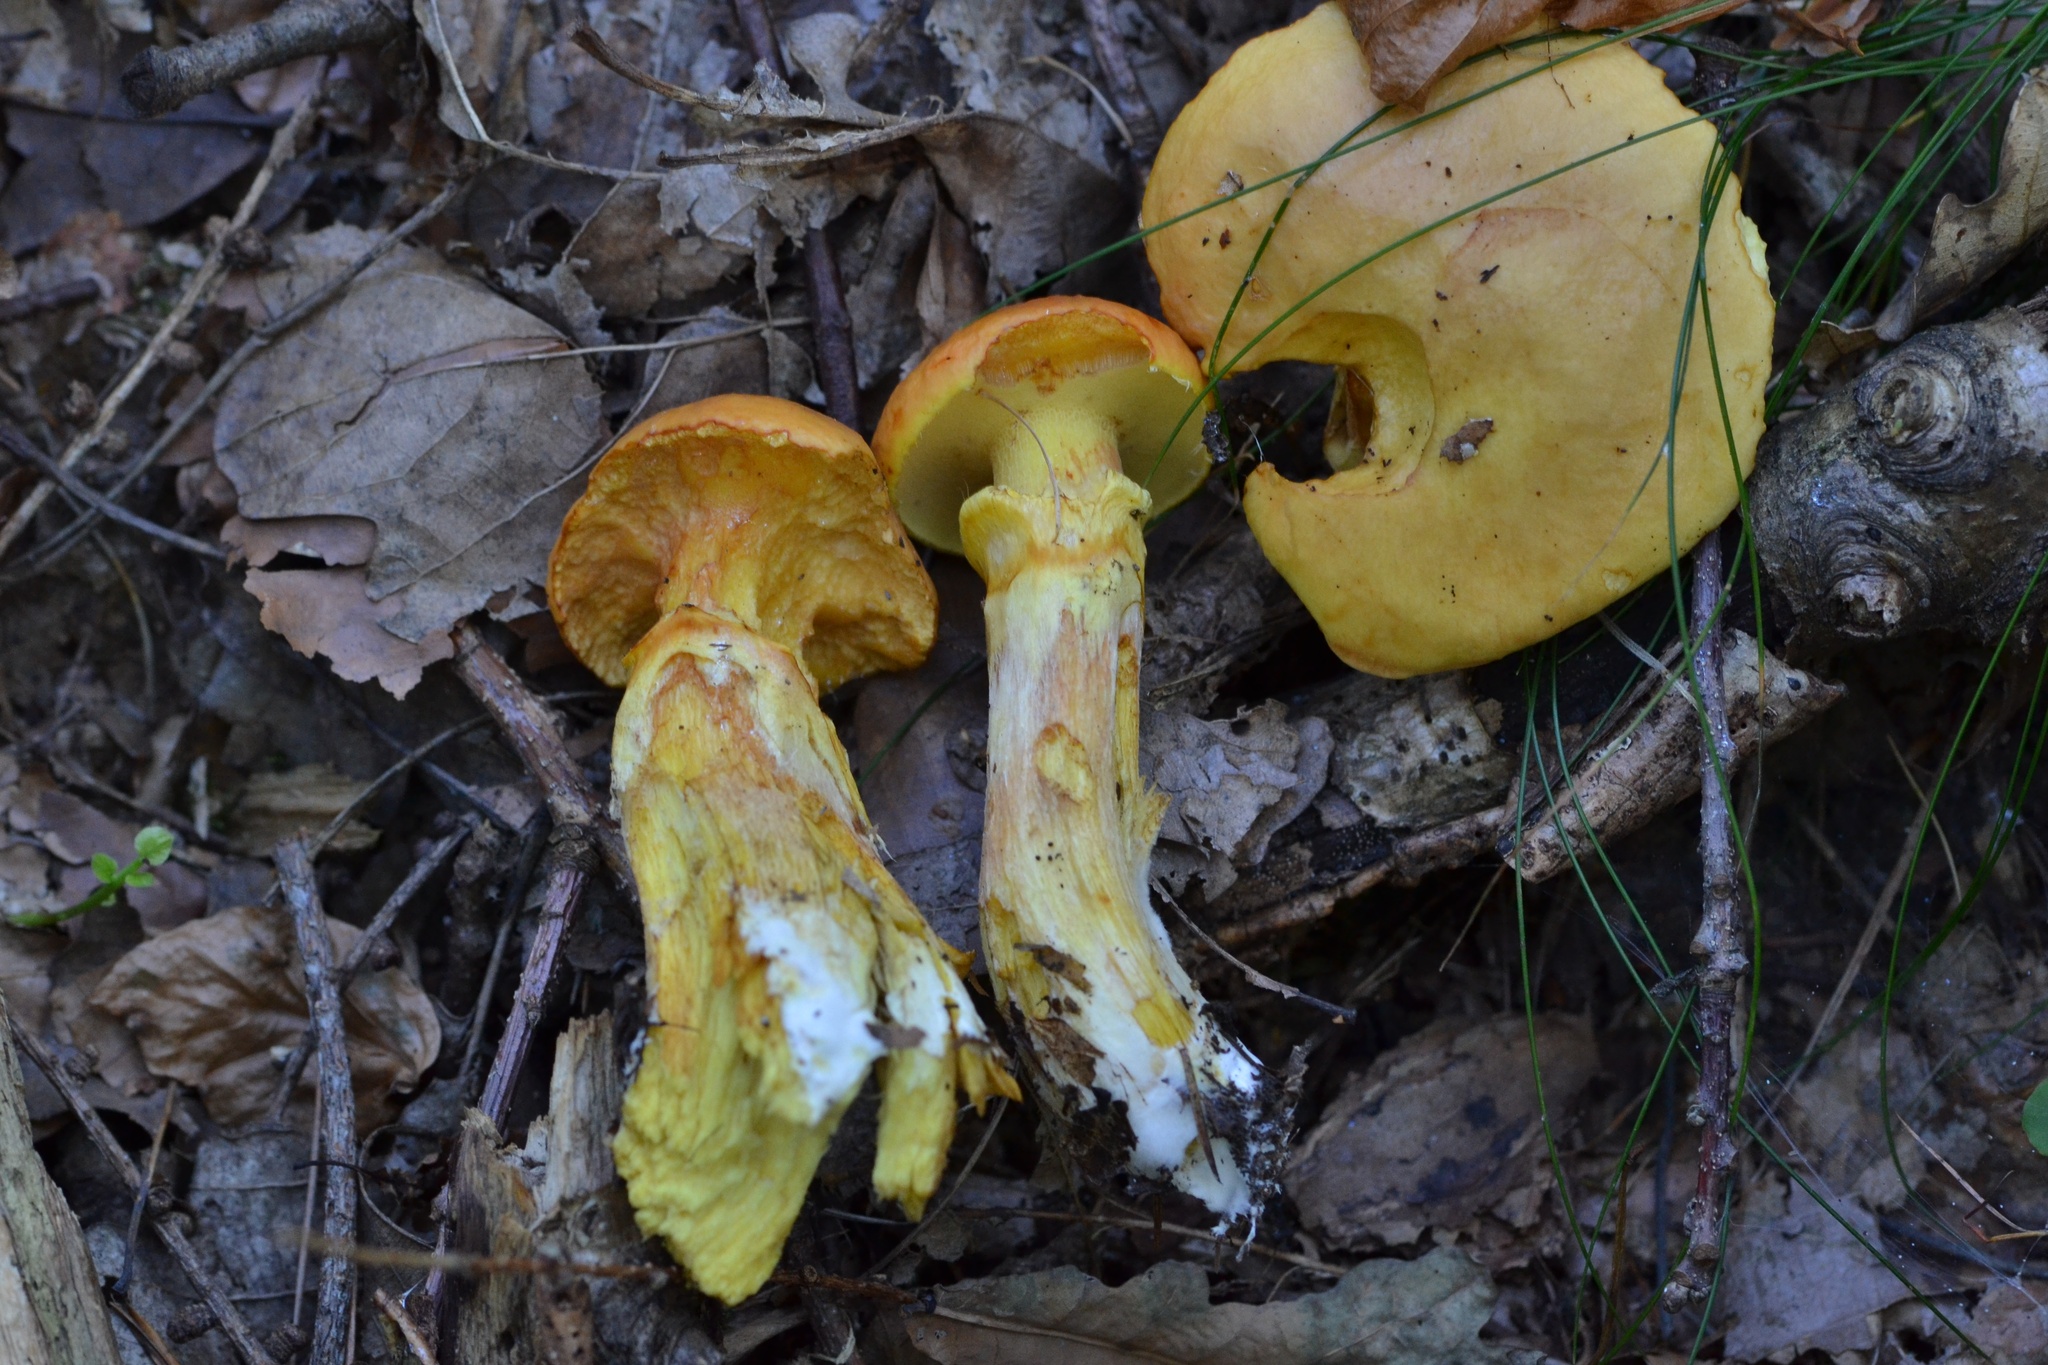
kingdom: Fungi
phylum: Basidiomycota
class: Agaricomycetes
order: Boletales
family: Suillaceae
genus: Suillus
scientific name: Suillus grevillei
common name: Larch bolete
